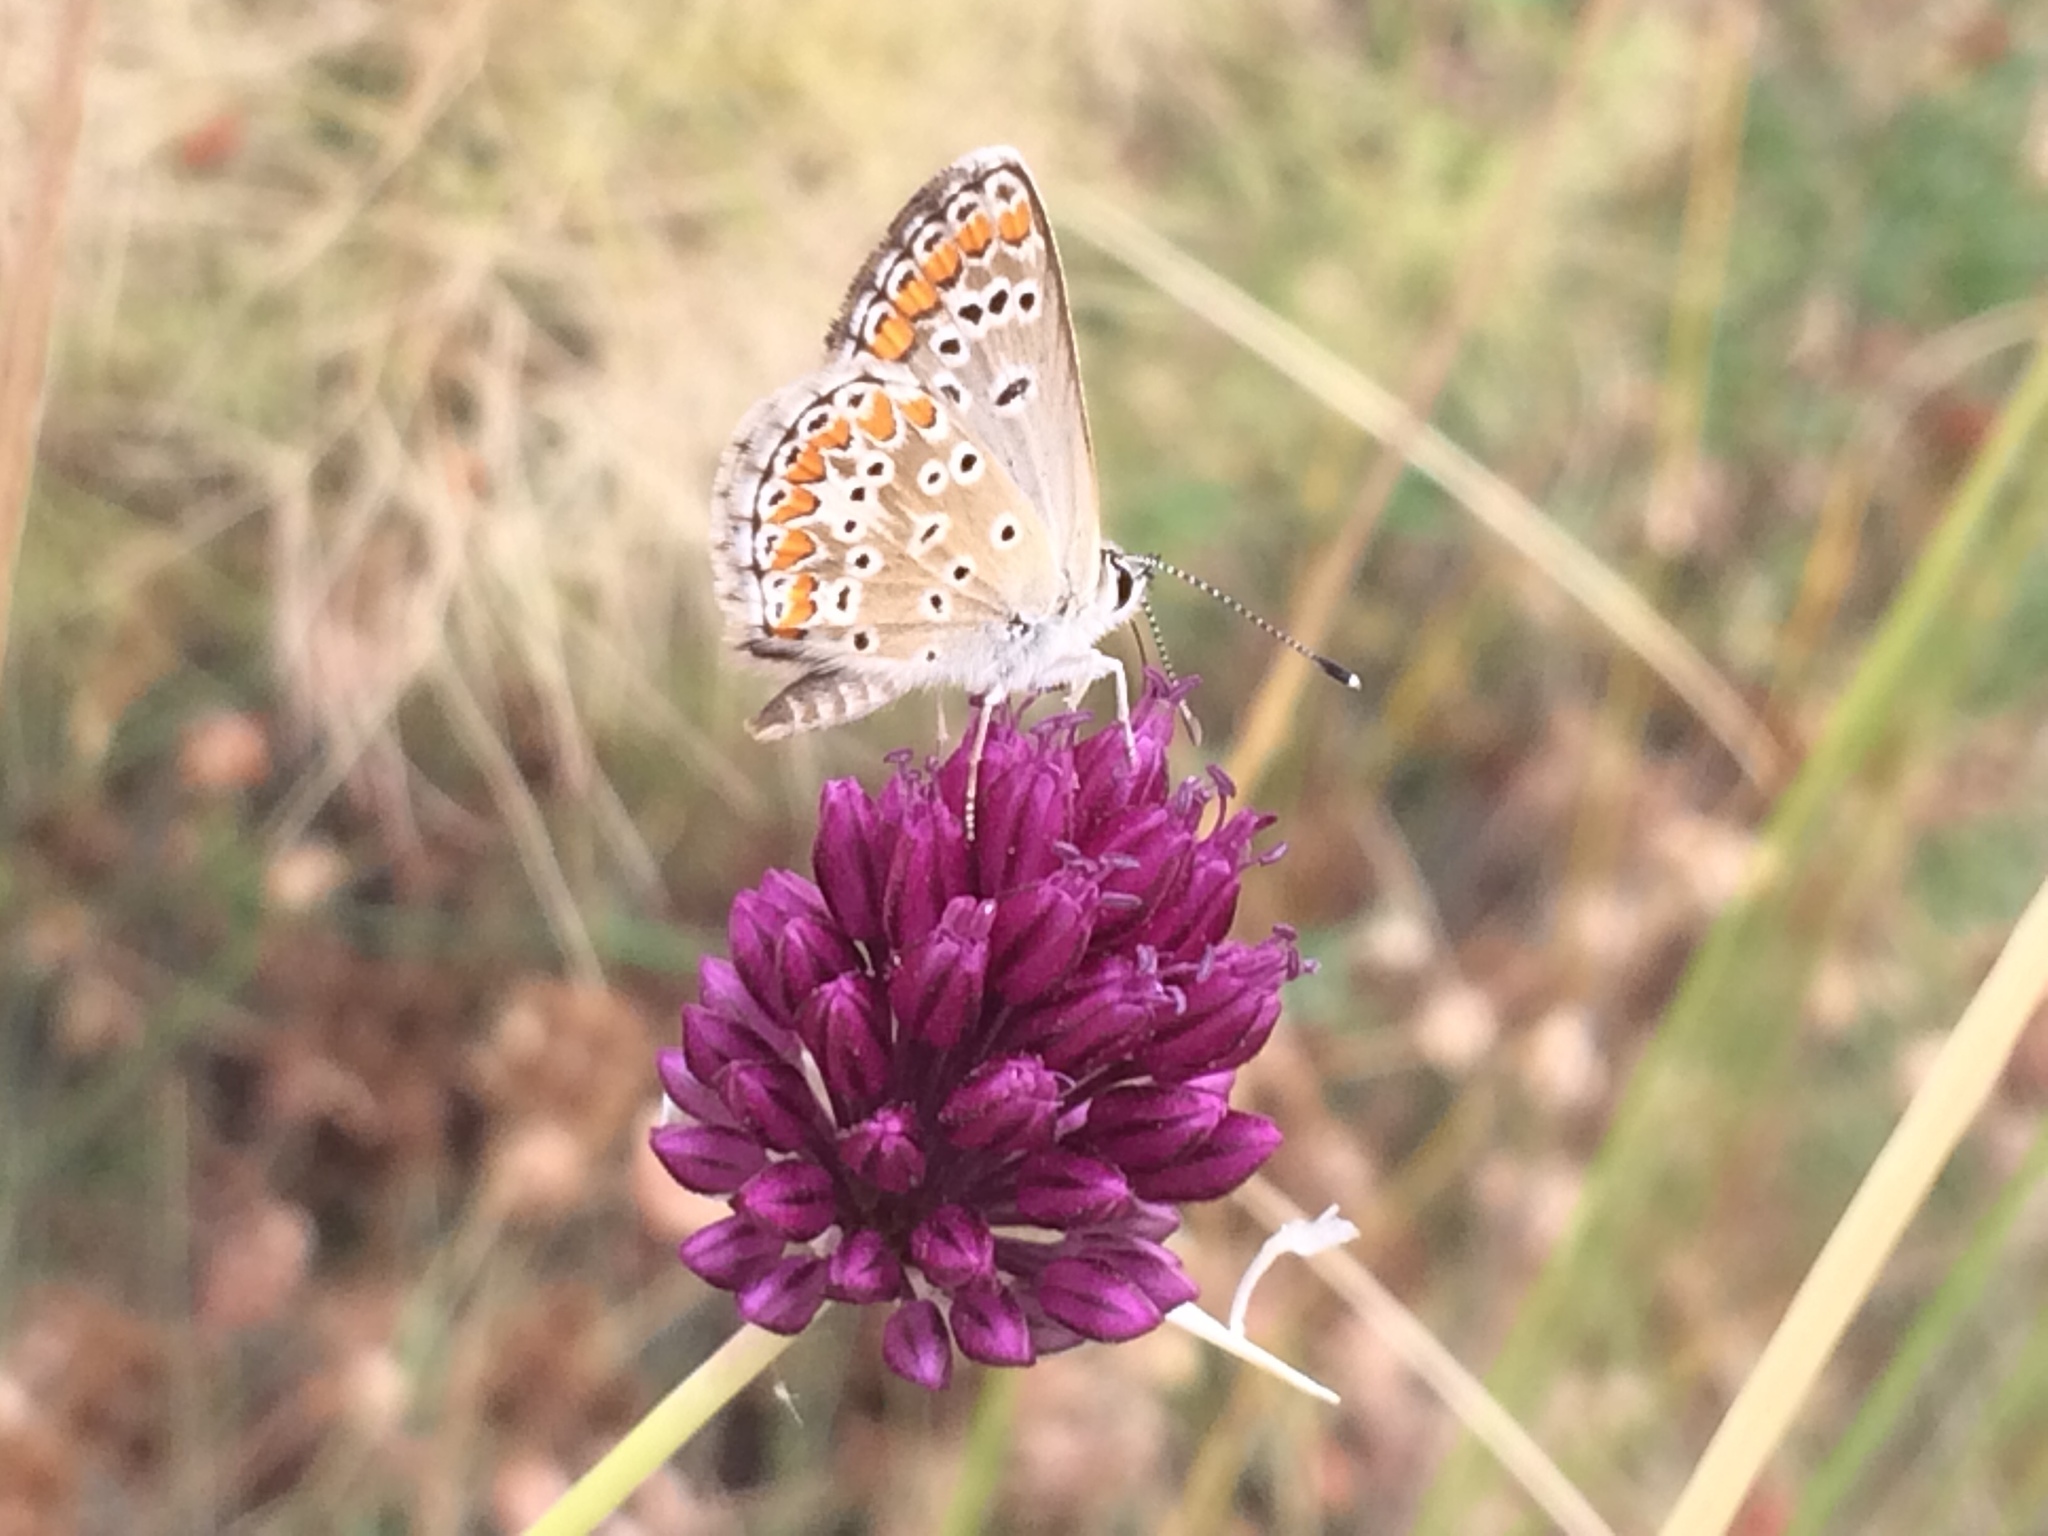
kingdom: Animalia
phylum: Arthropoda
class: Insecta
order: Lepidoptera
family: Lycaenidae
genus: Aricia
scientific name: Aricia agestis
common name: Brown argus
